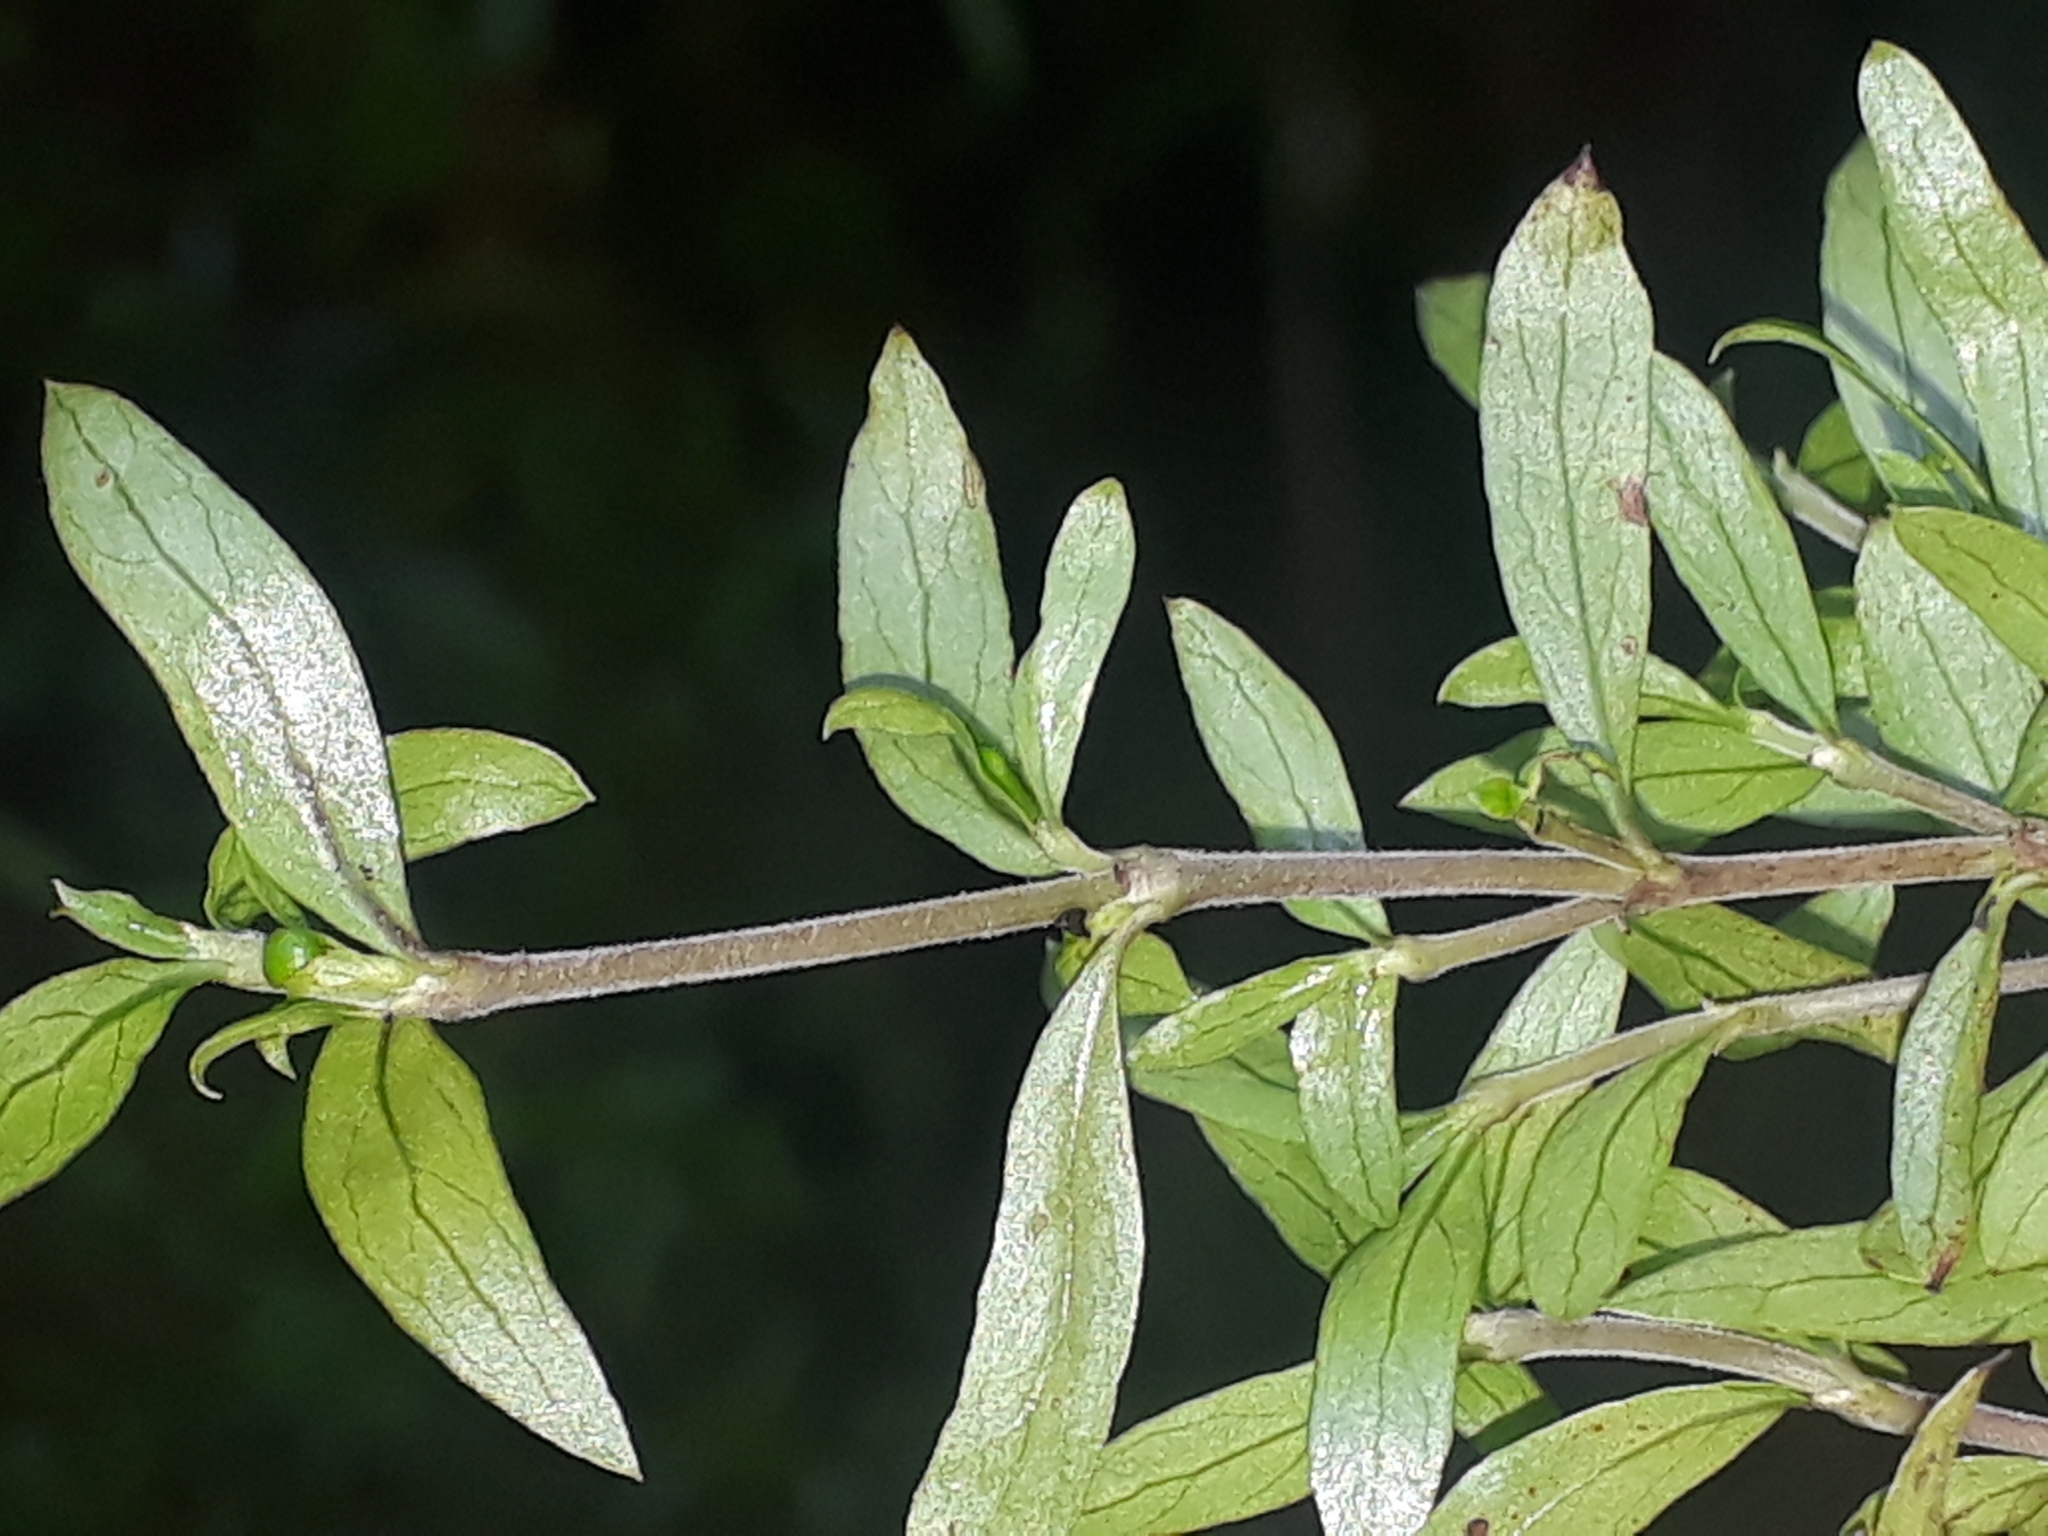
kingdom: Plantae
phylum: Tracheophyta
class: Magnoliopsida
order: Gentianales
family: Rubiaceae
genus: Coprosma
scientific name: Coprosma quadrifida
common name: Prickly currantbush
